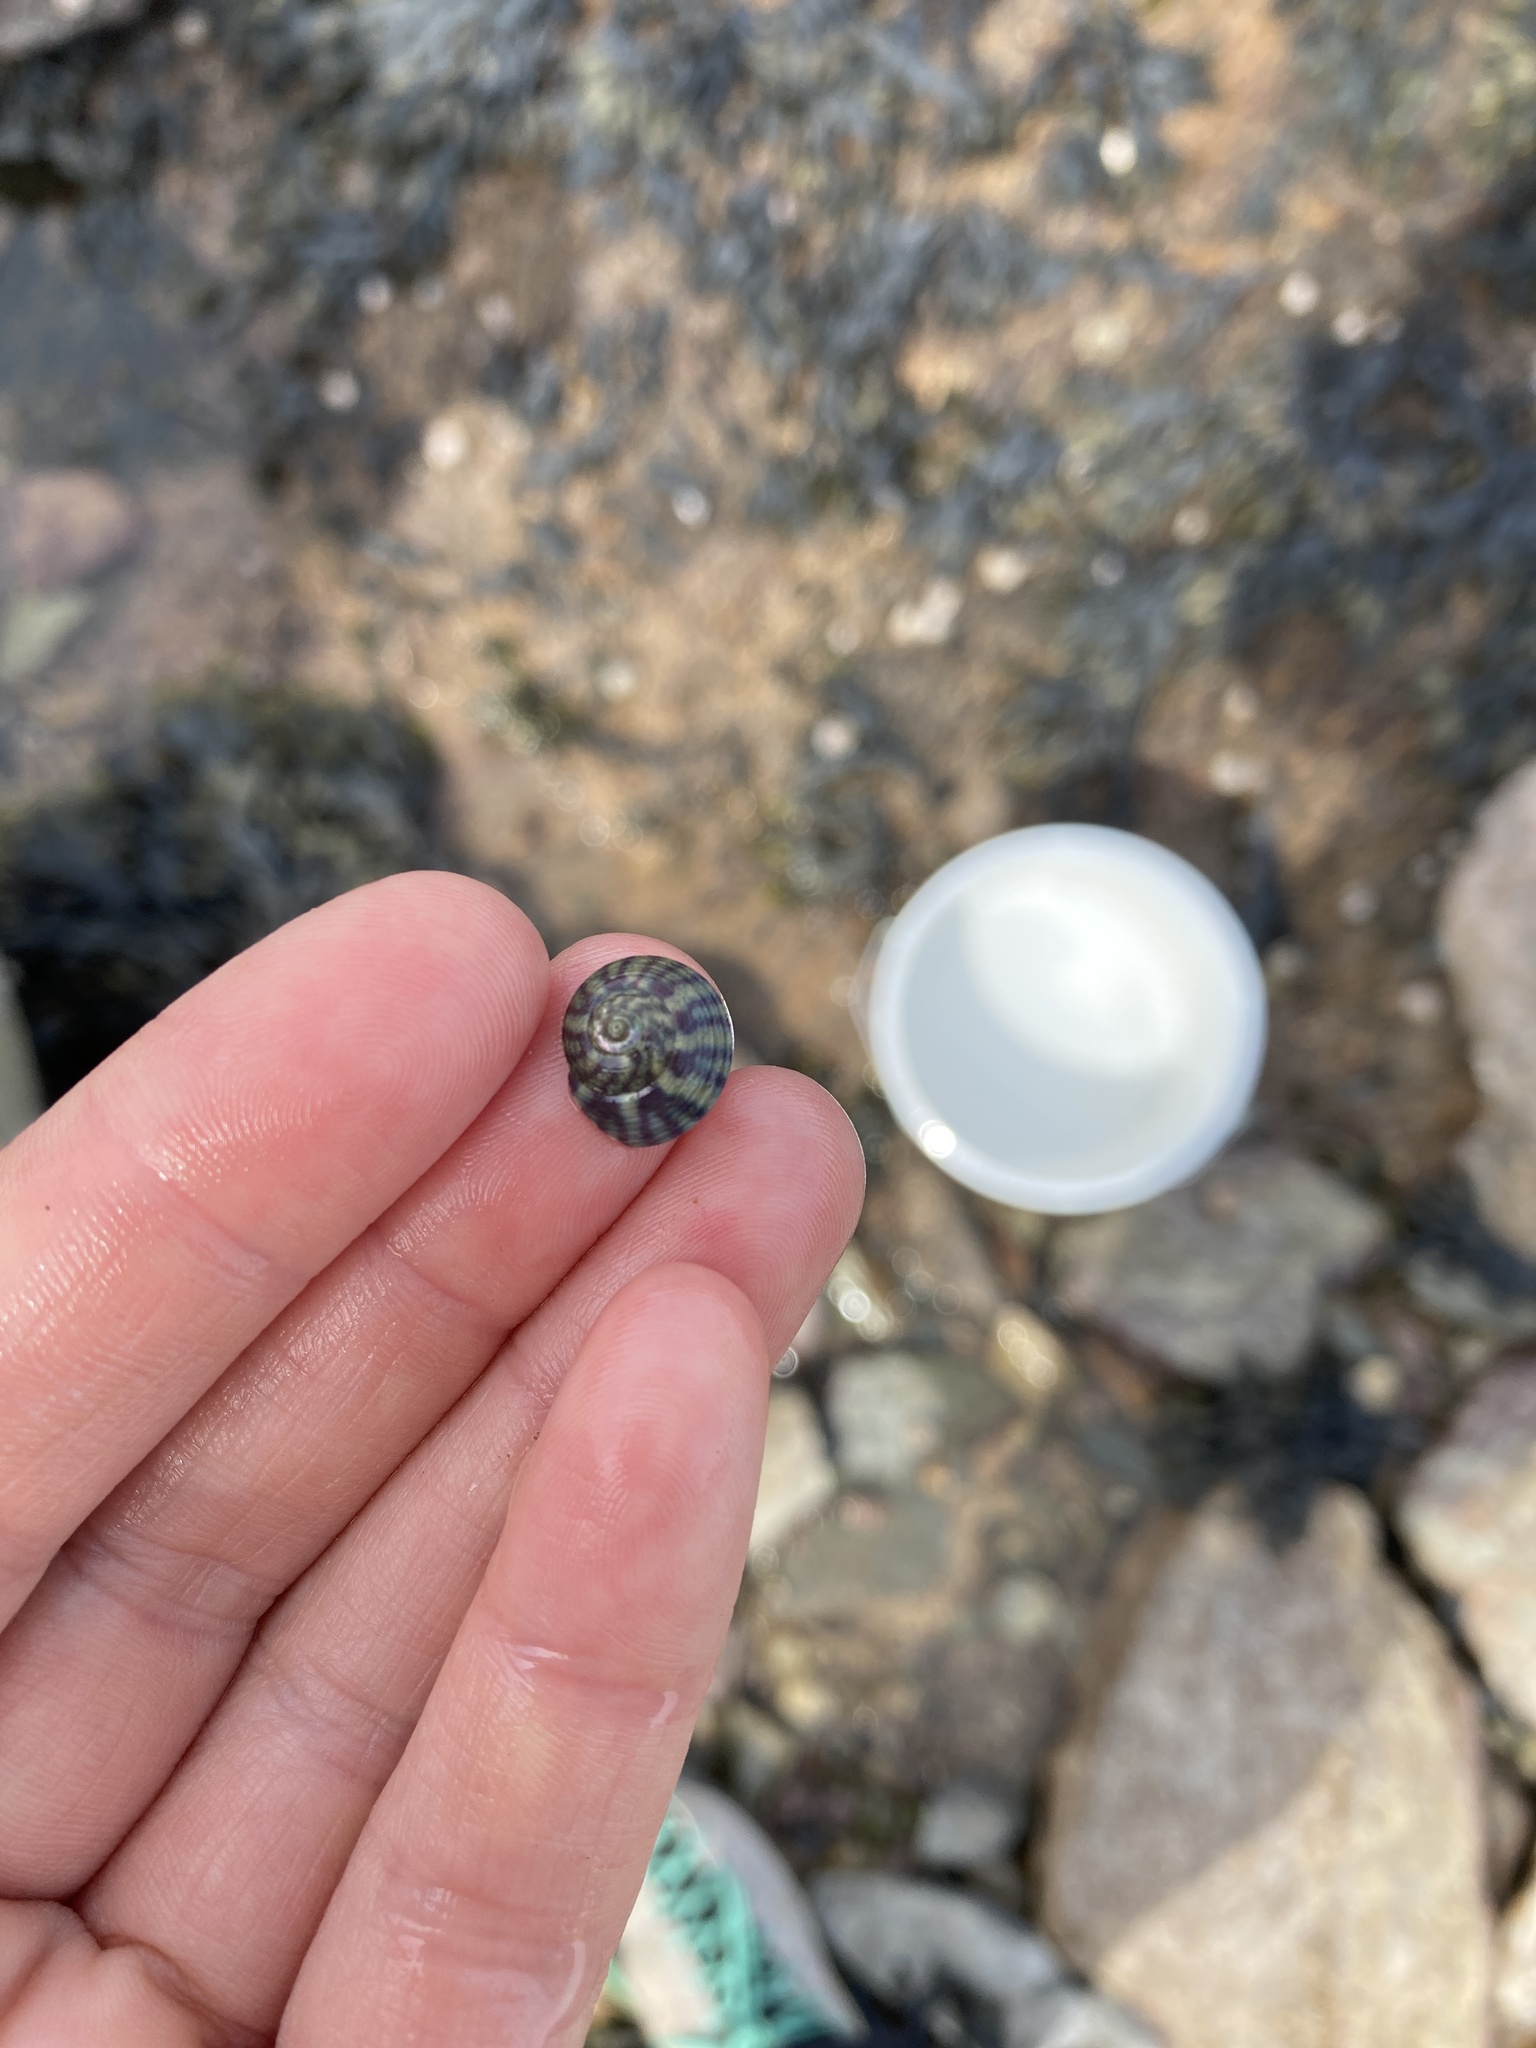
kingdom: Animalia
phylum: Mollusca
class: Gastropoda
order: Trochida
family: Trochidae
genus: Steromphala
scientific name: Steromphala umbilicalis
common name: Flat top shell
